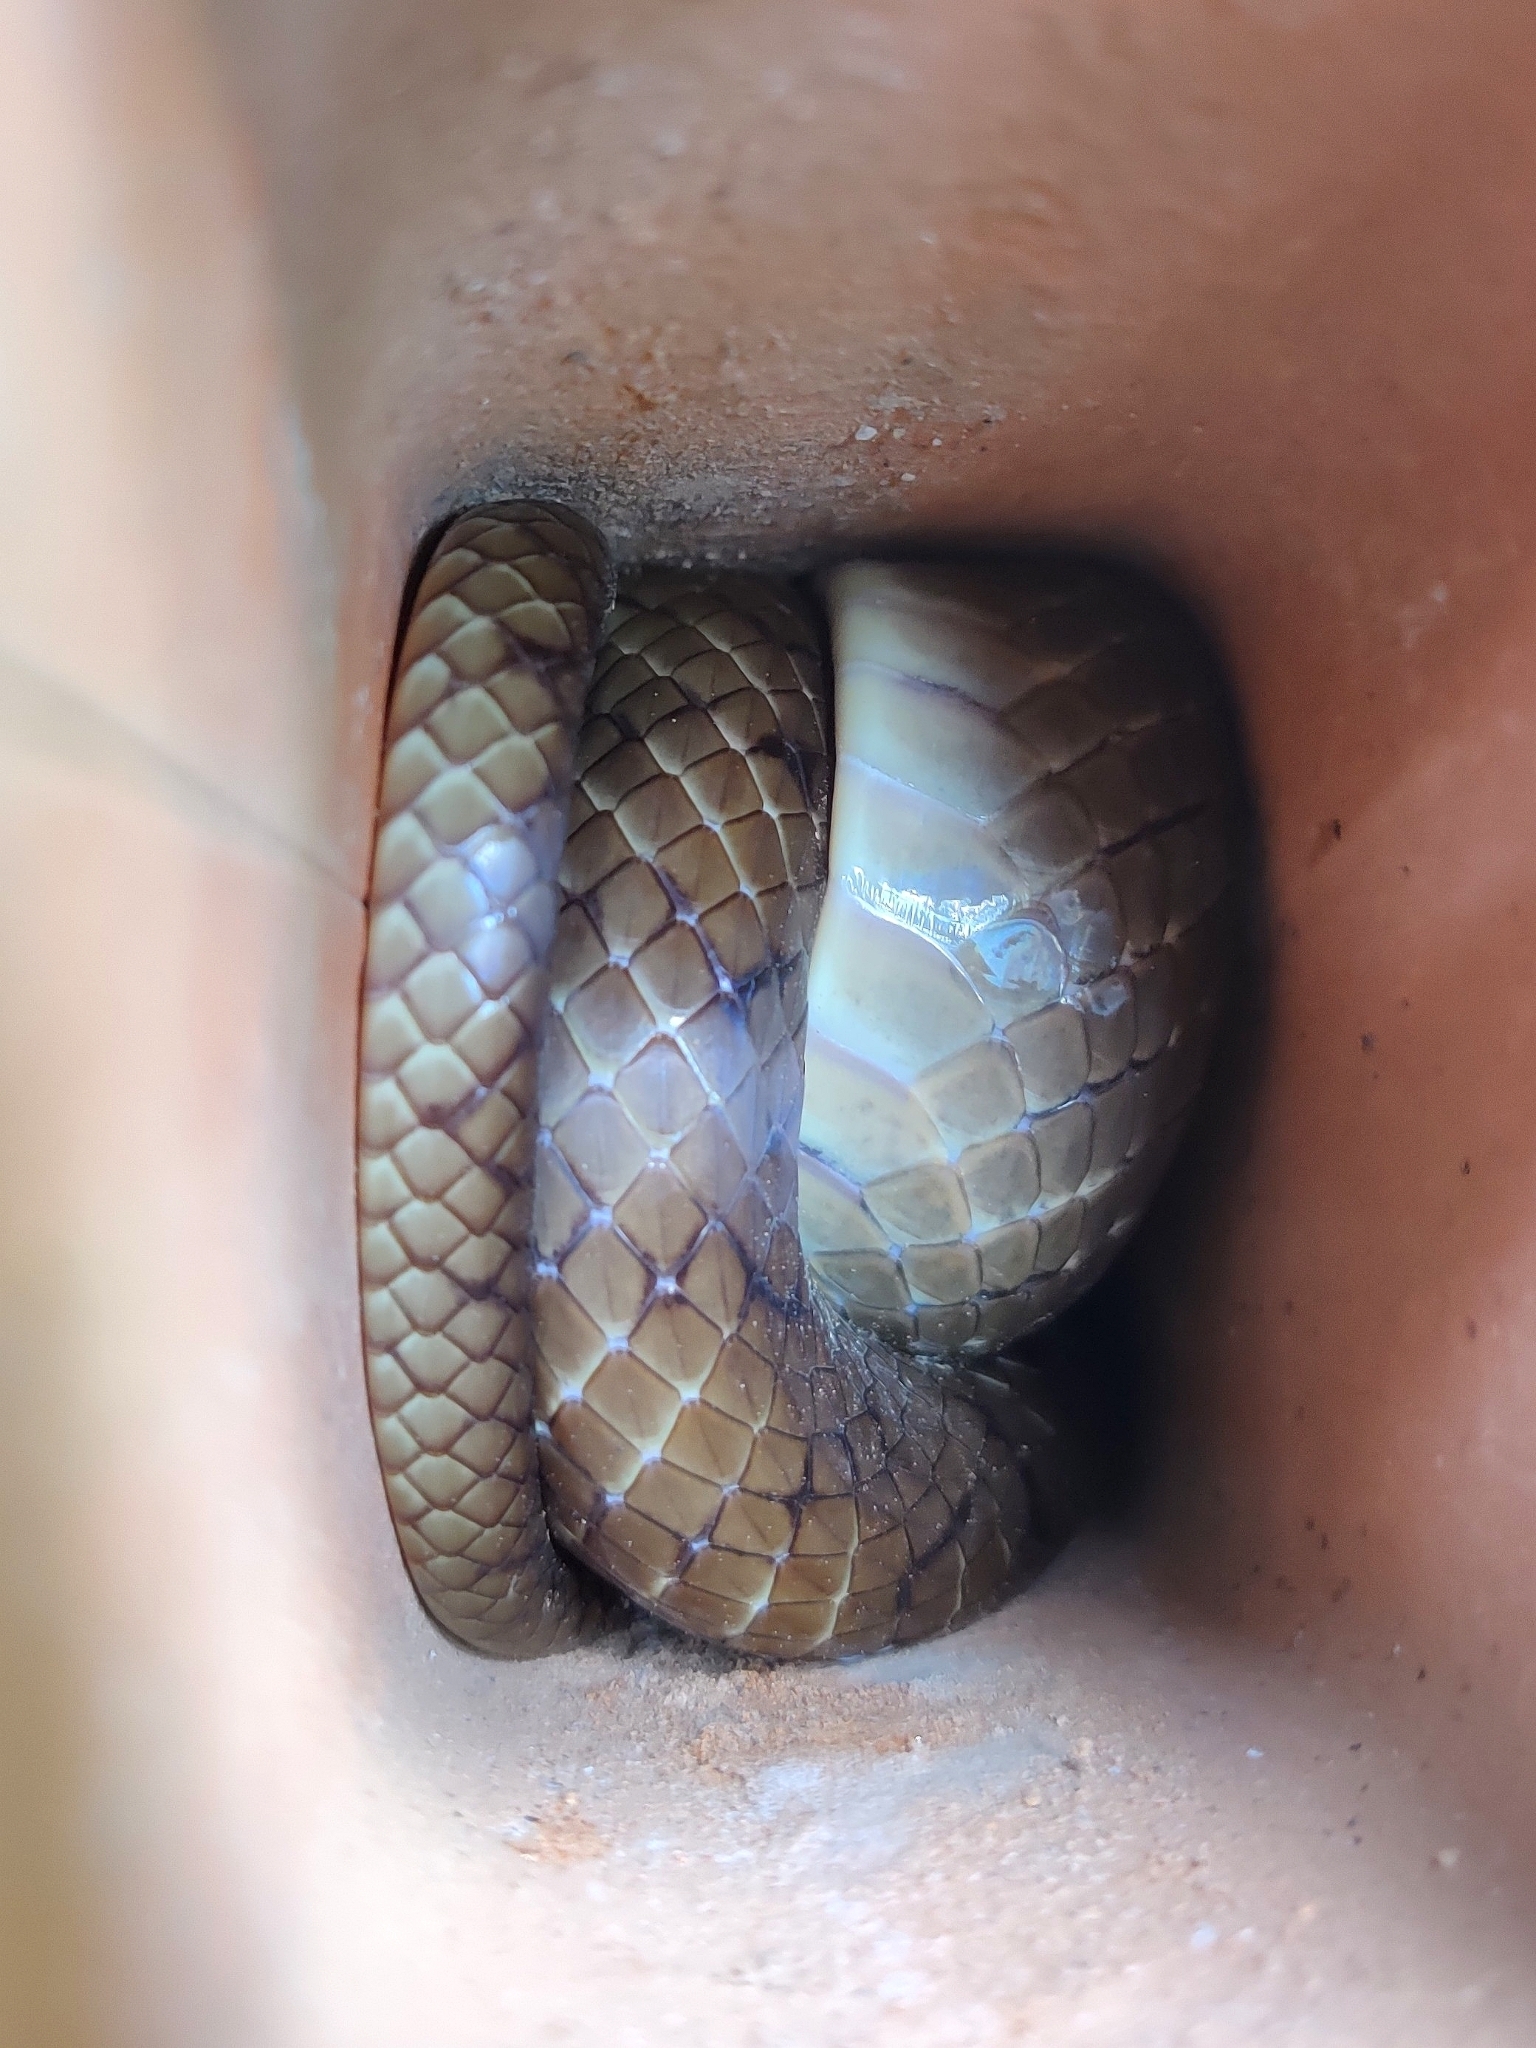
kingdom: Animalia
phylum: Chordata
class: Squamata
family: Colubridae
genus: Ptyas
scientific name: Ptyas mucosa
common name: Oriental ratsnake
